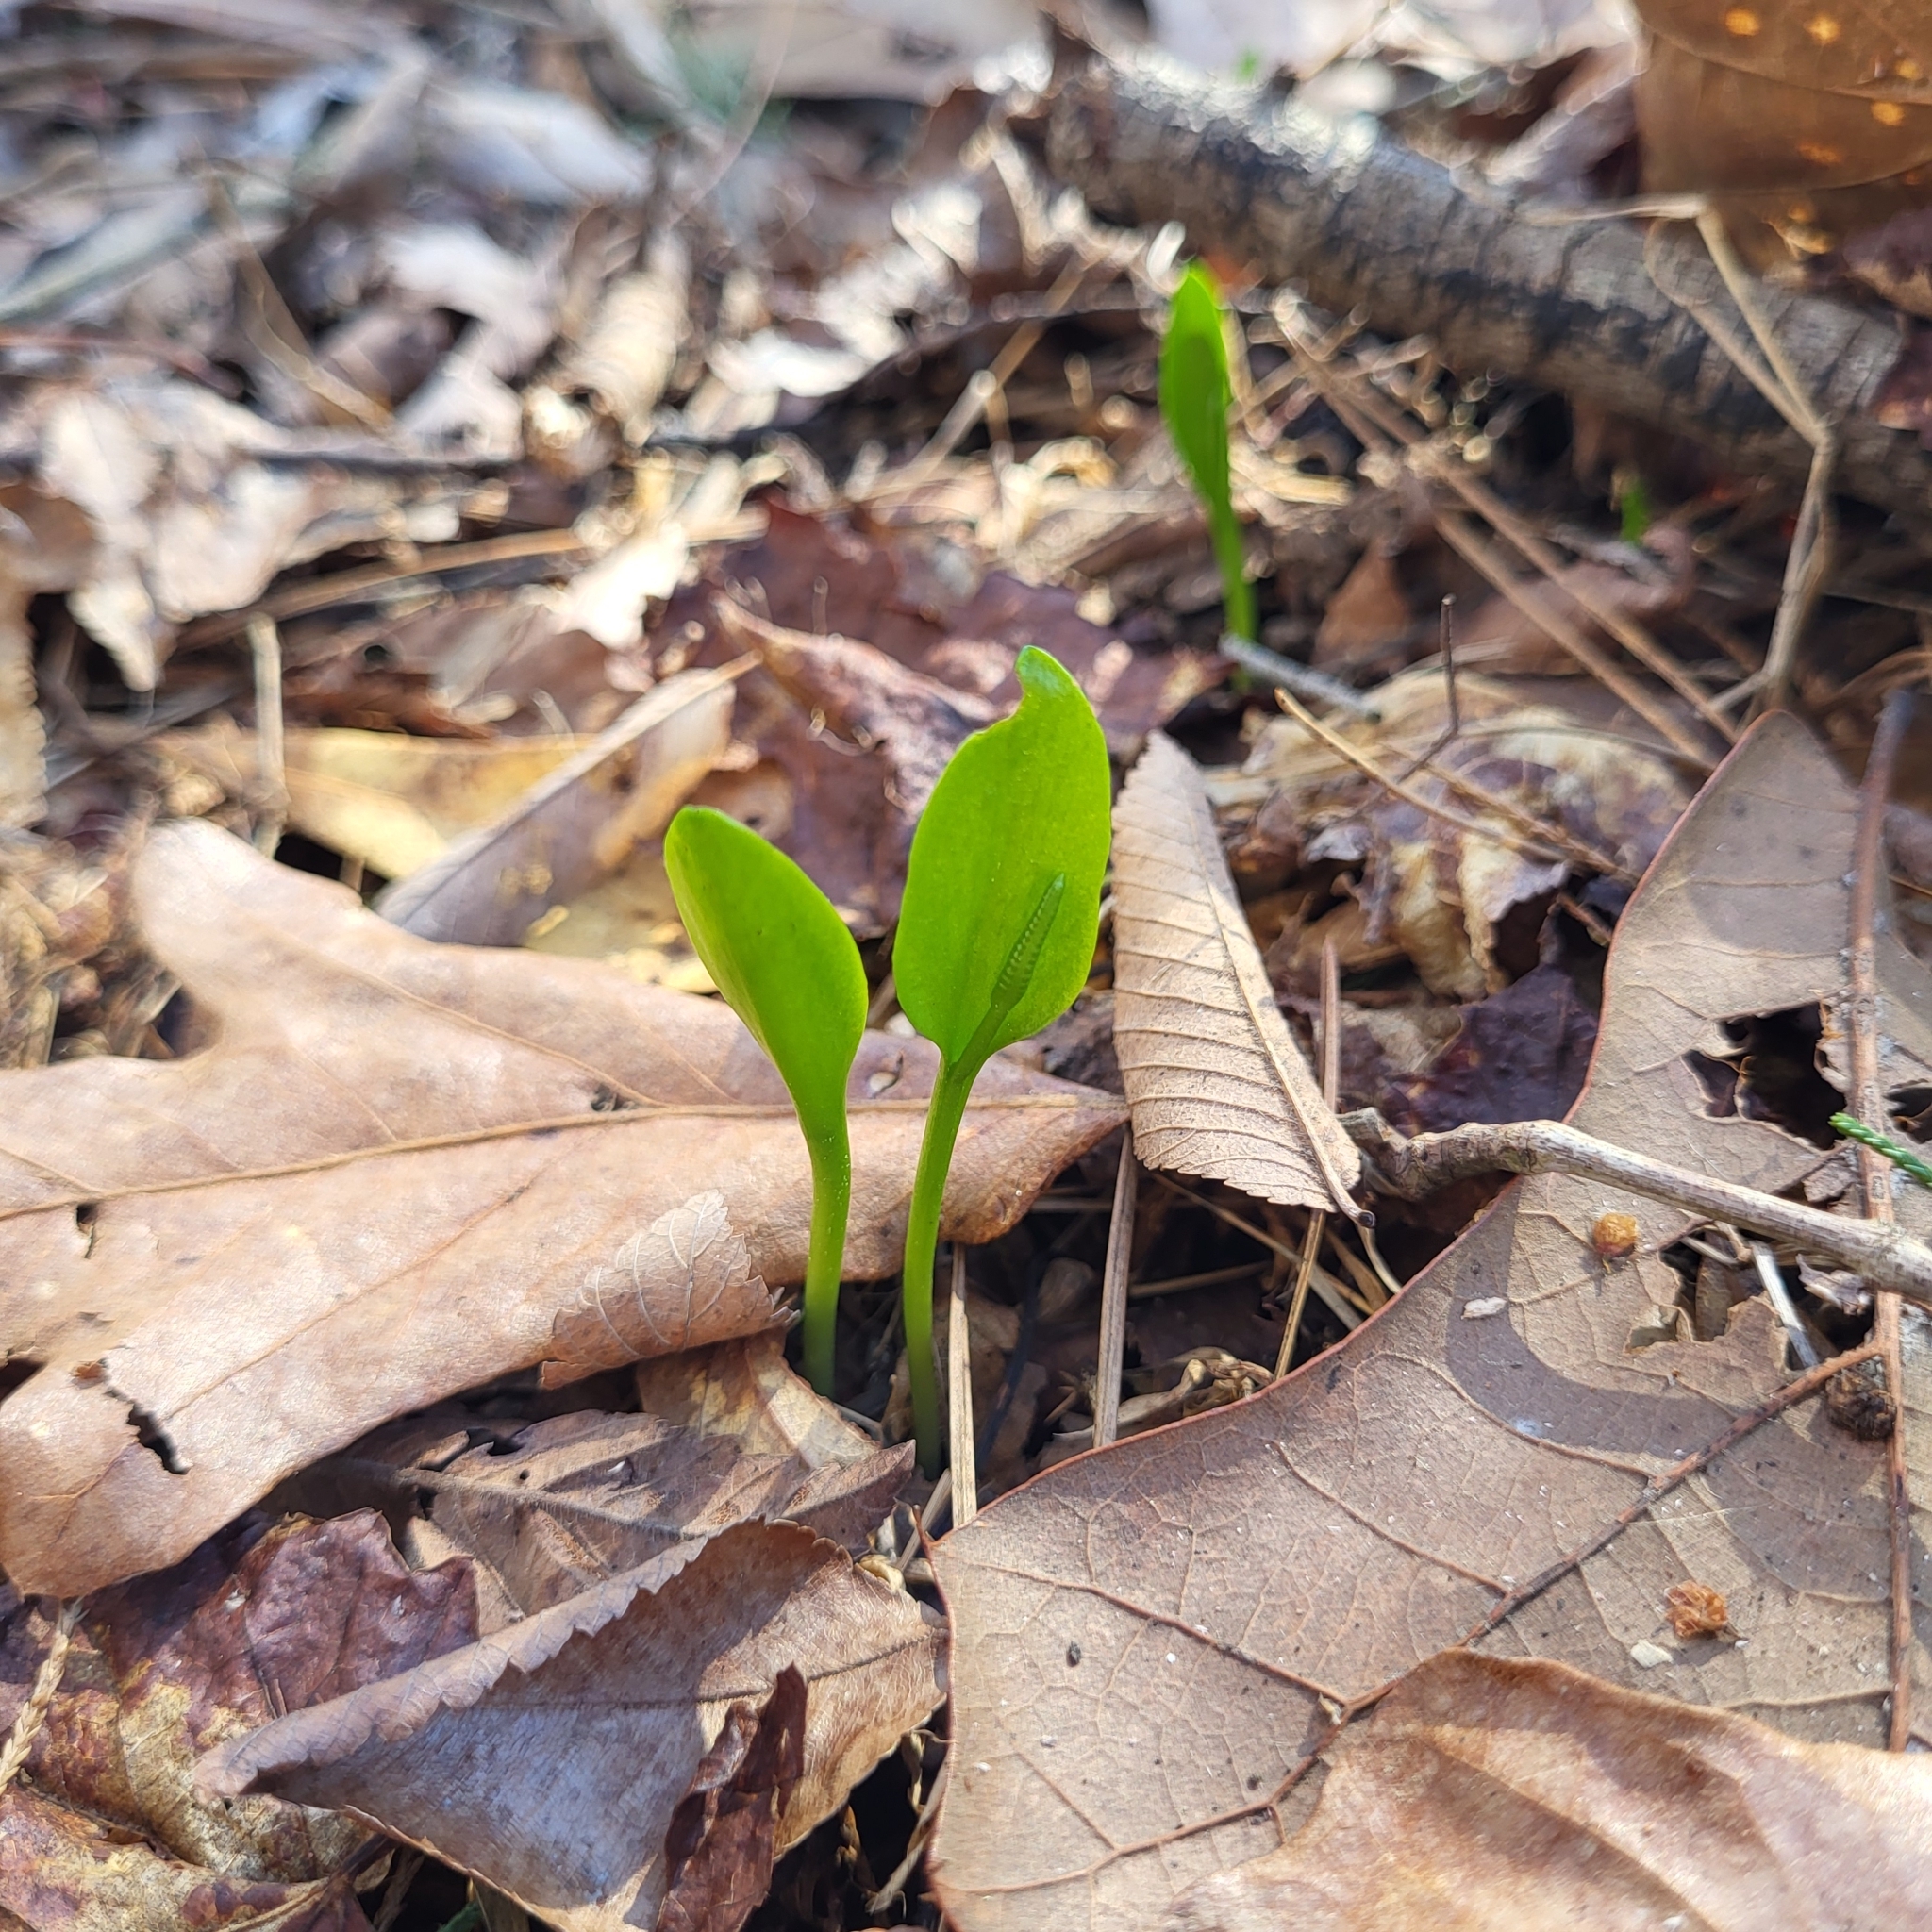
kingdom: Plantae
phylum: Tracheophyta
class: Polypodiopsida
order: Ophioglossales
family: Ophioglossaceae
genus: Ophioglossum
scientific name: Ophioglossum vulgatum
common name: Adder's-tongue
